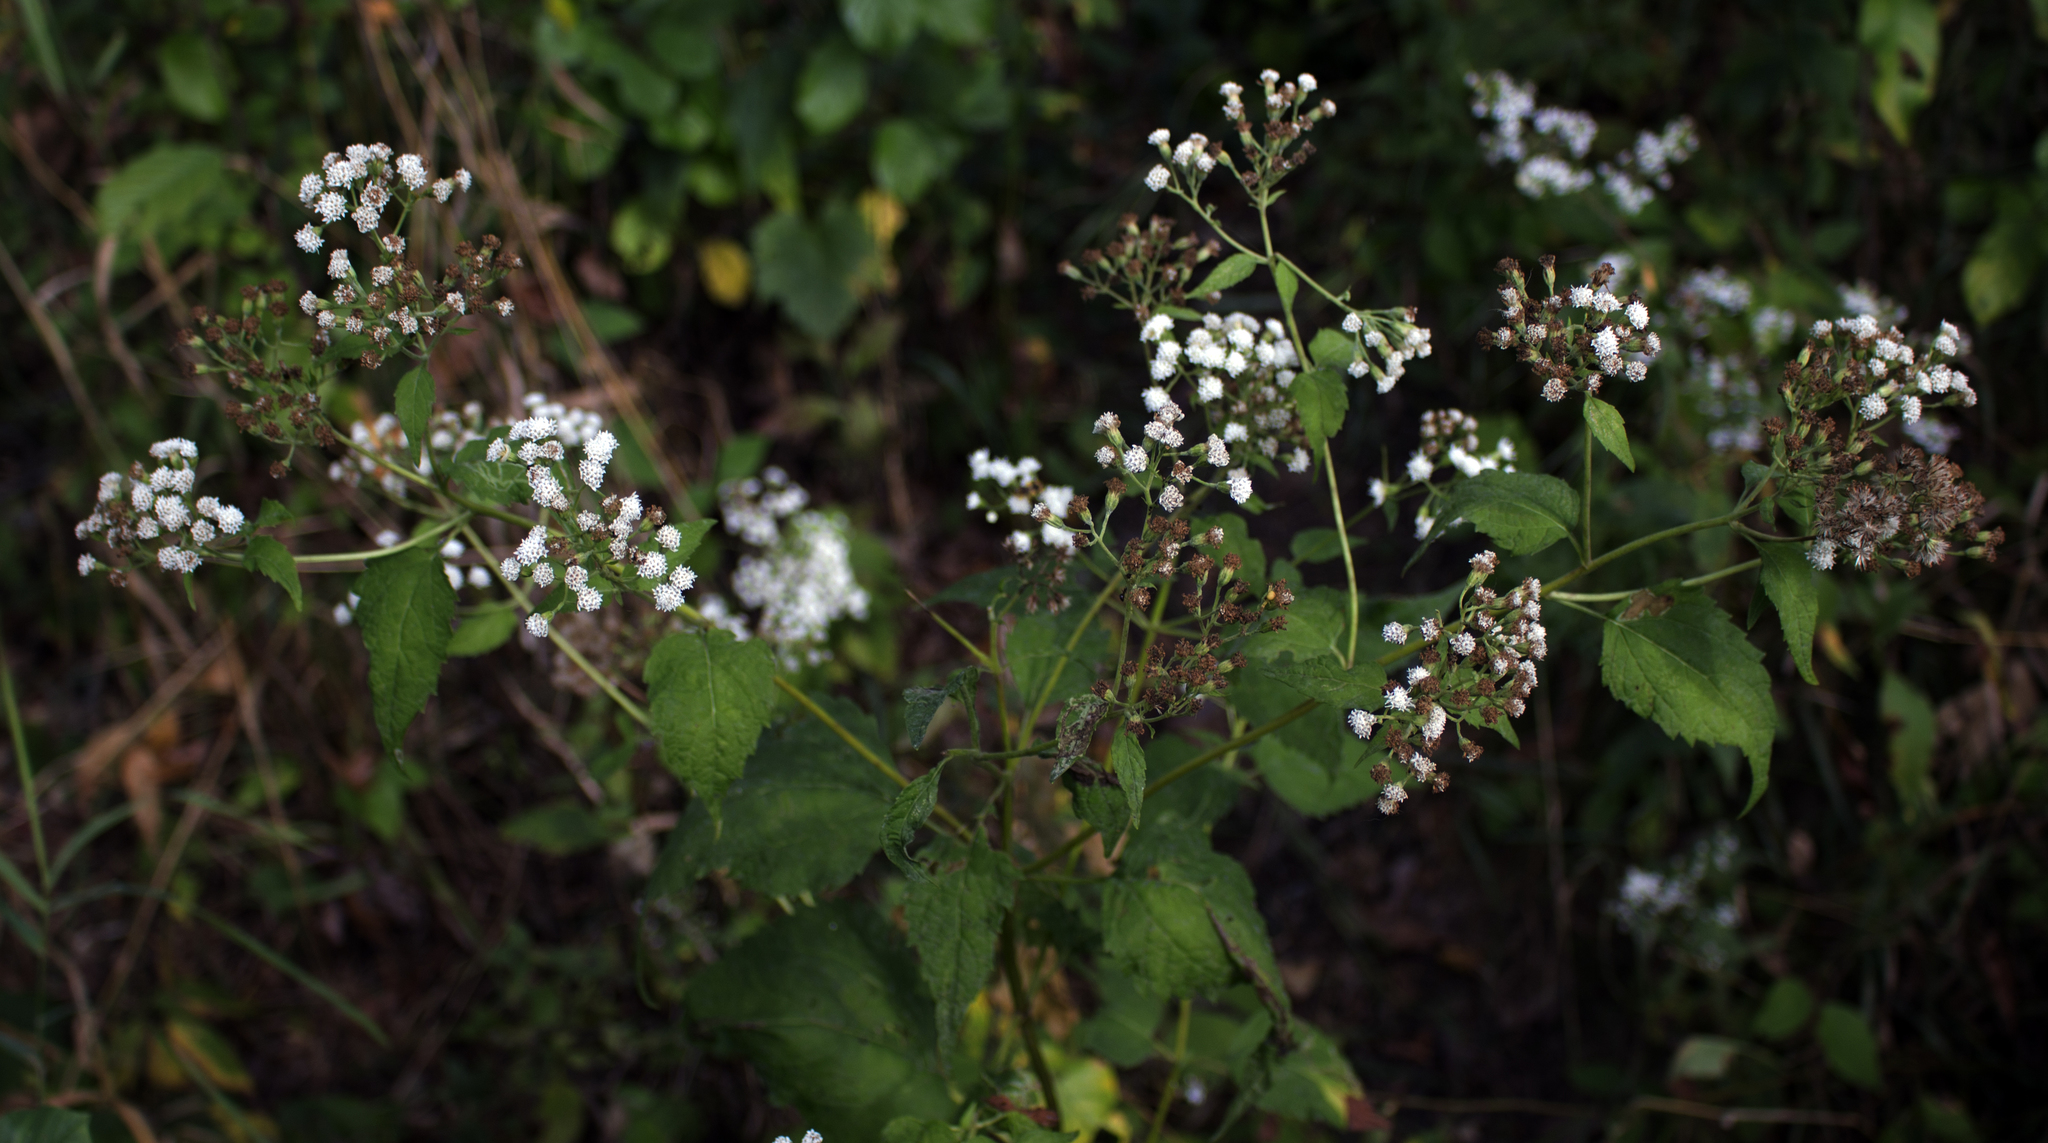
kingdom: Plantae
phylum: Tracheophyta
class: Magnoliopsida
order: Asterales
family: Asteraceae
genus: Ageratina
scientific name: Ageratina altissima
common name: White snakeroot
